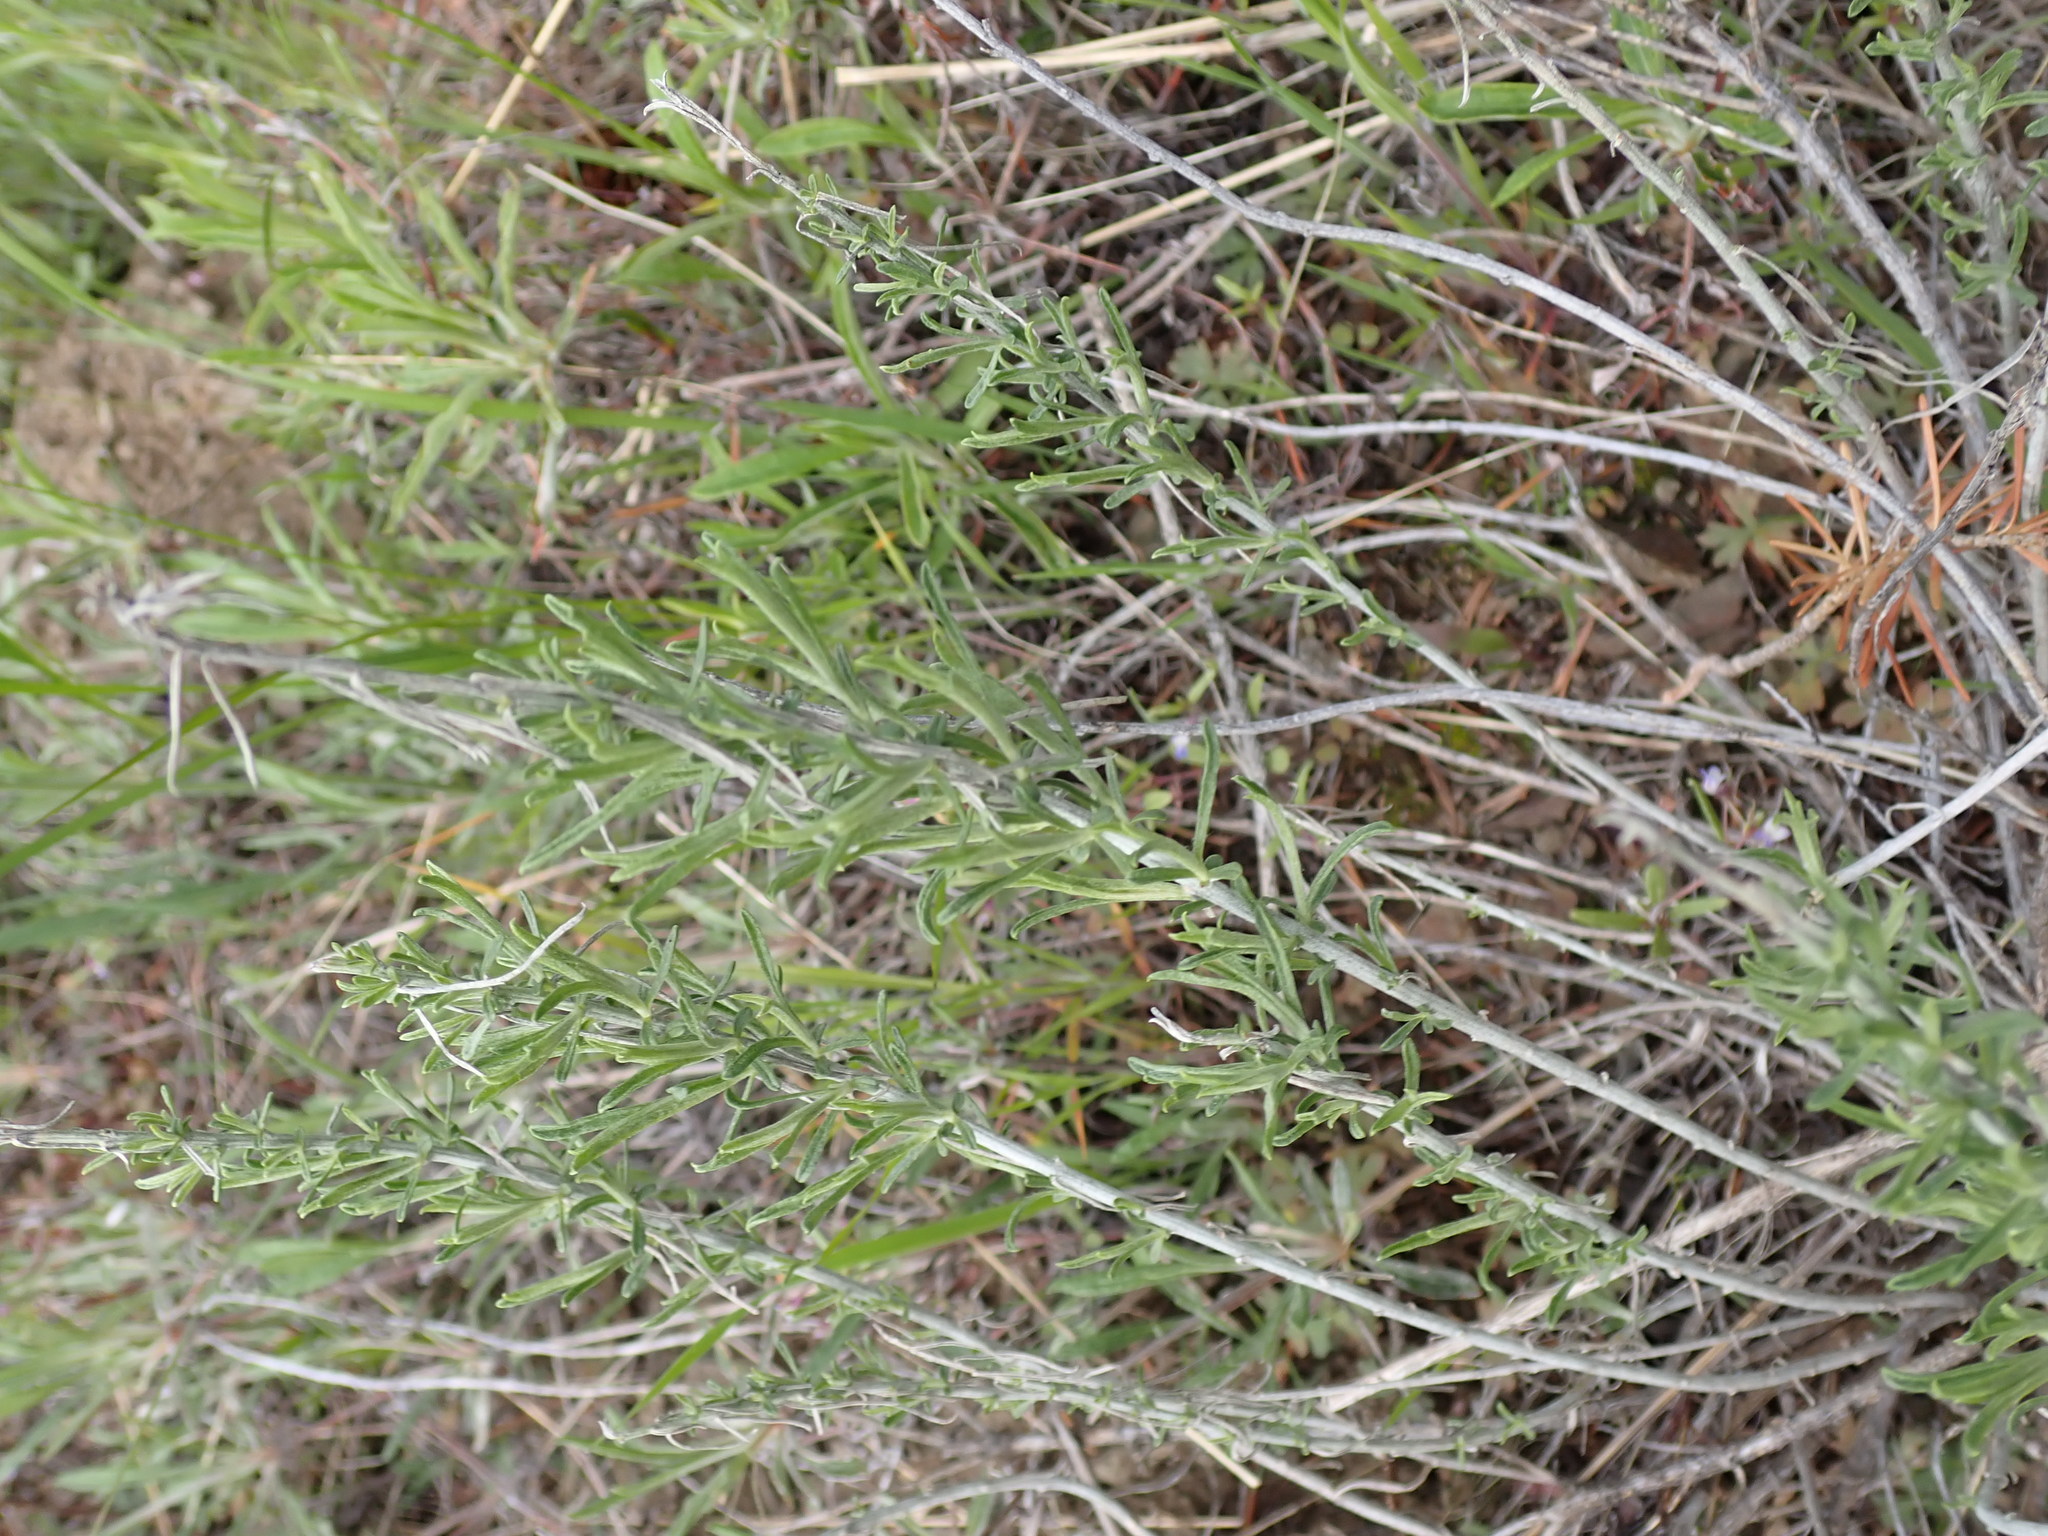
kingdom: Plantae
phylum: Tracheophyta
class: Magnoliopsida
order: Asterales
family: Asteraceae
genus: Ericameria
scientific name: Ericameria nauseosa
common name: Rubber rabbitbrush
